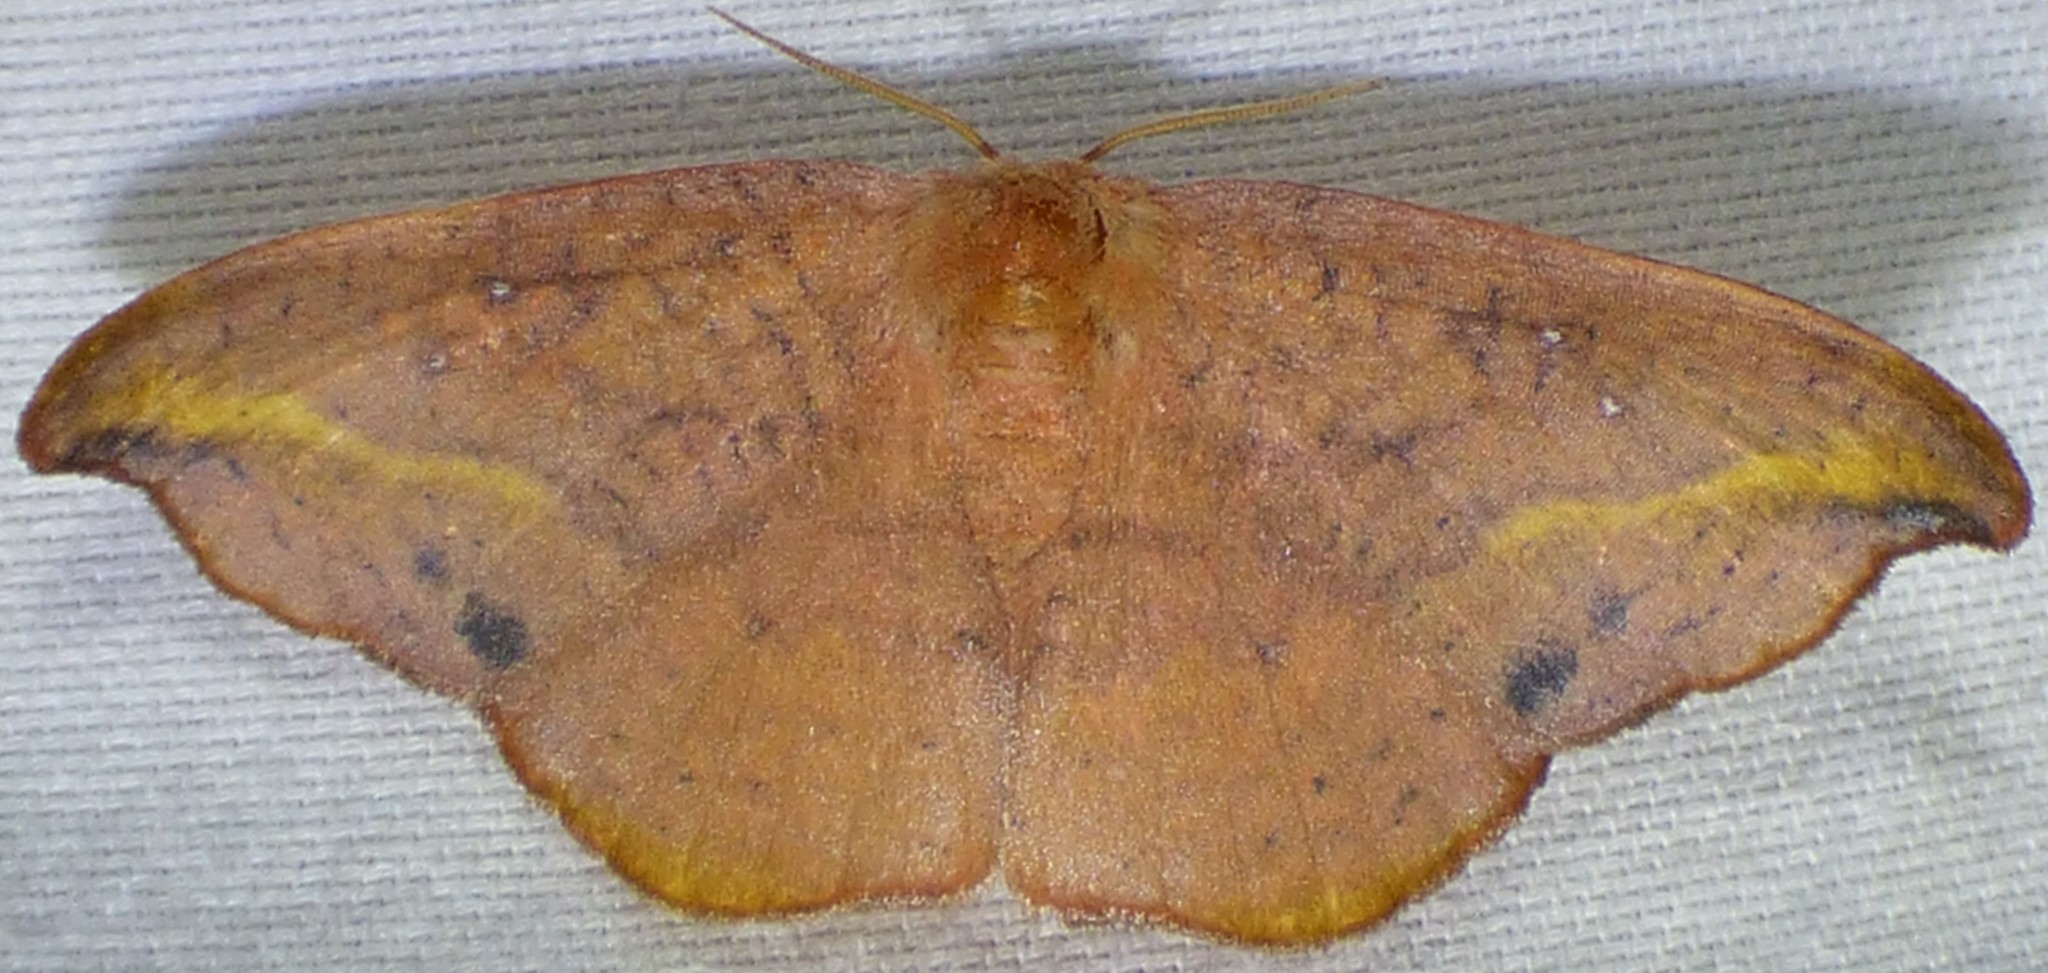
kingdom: Animalia
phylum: Arthropoda
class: Insecta
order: Lepidoptera
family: Drepanidae
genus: Oreta
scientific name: Oreta rosea
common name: Rose hooktip
